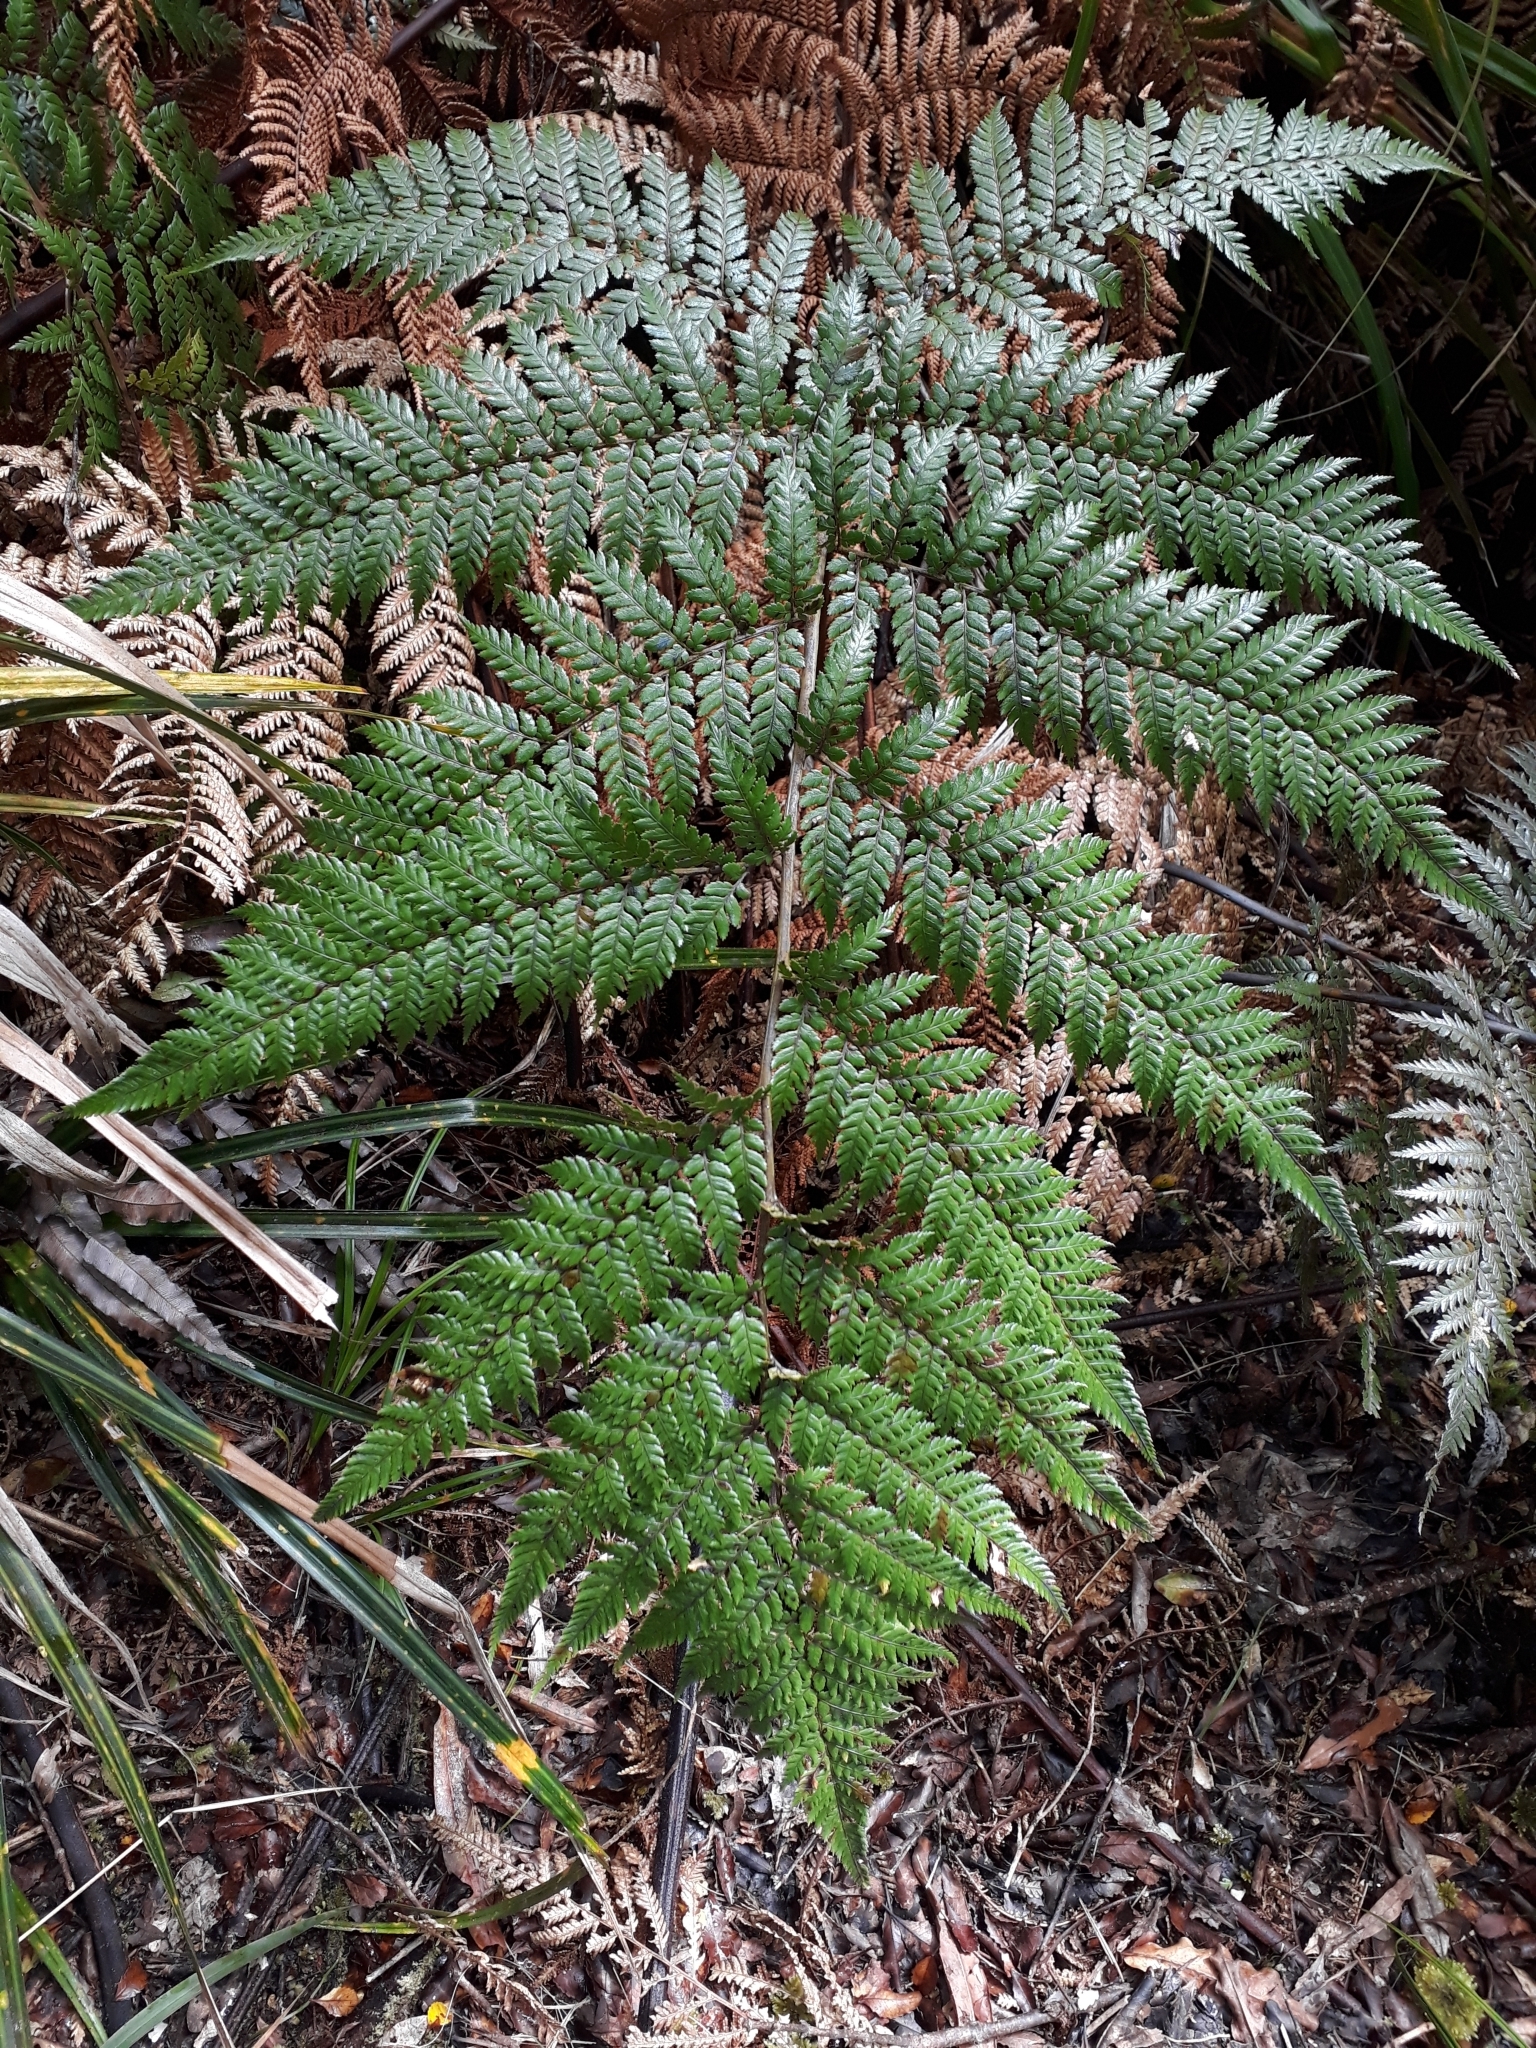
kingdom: Plantae
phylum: Tracheophyta
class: Polypodiopsida
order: Cyatheales
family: Dicksoniaceae
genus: Dicksonia
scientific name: Dicksonia lanata
